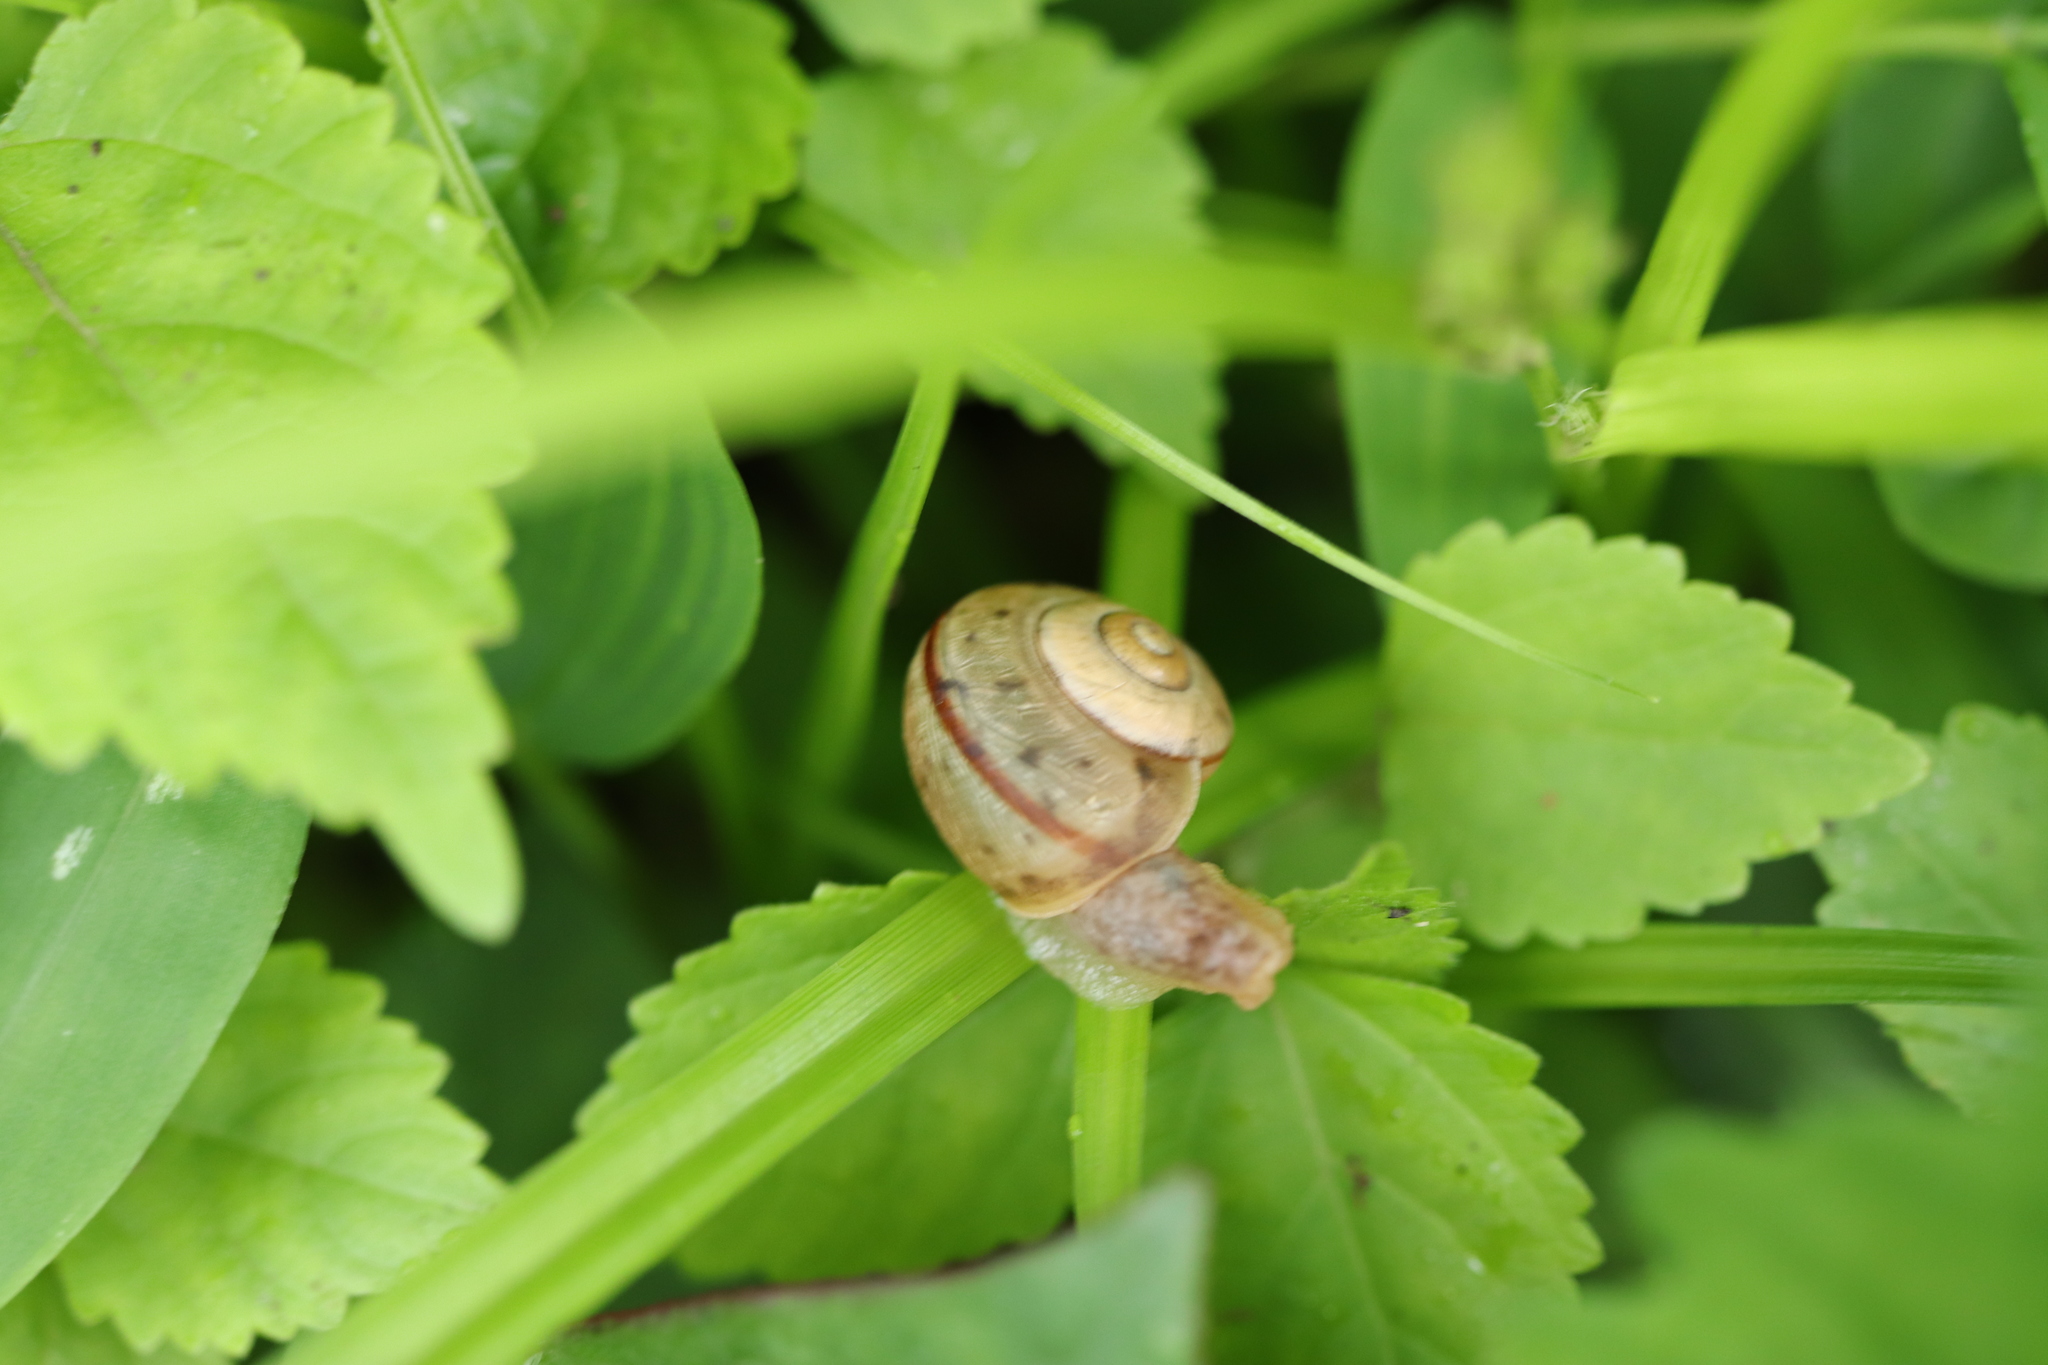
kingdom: Animalia
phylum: Mollusca
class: Gastropoda
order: Stylommatophora
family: Camaenidae
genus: Euhadra
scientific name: Euhadra quaesita
